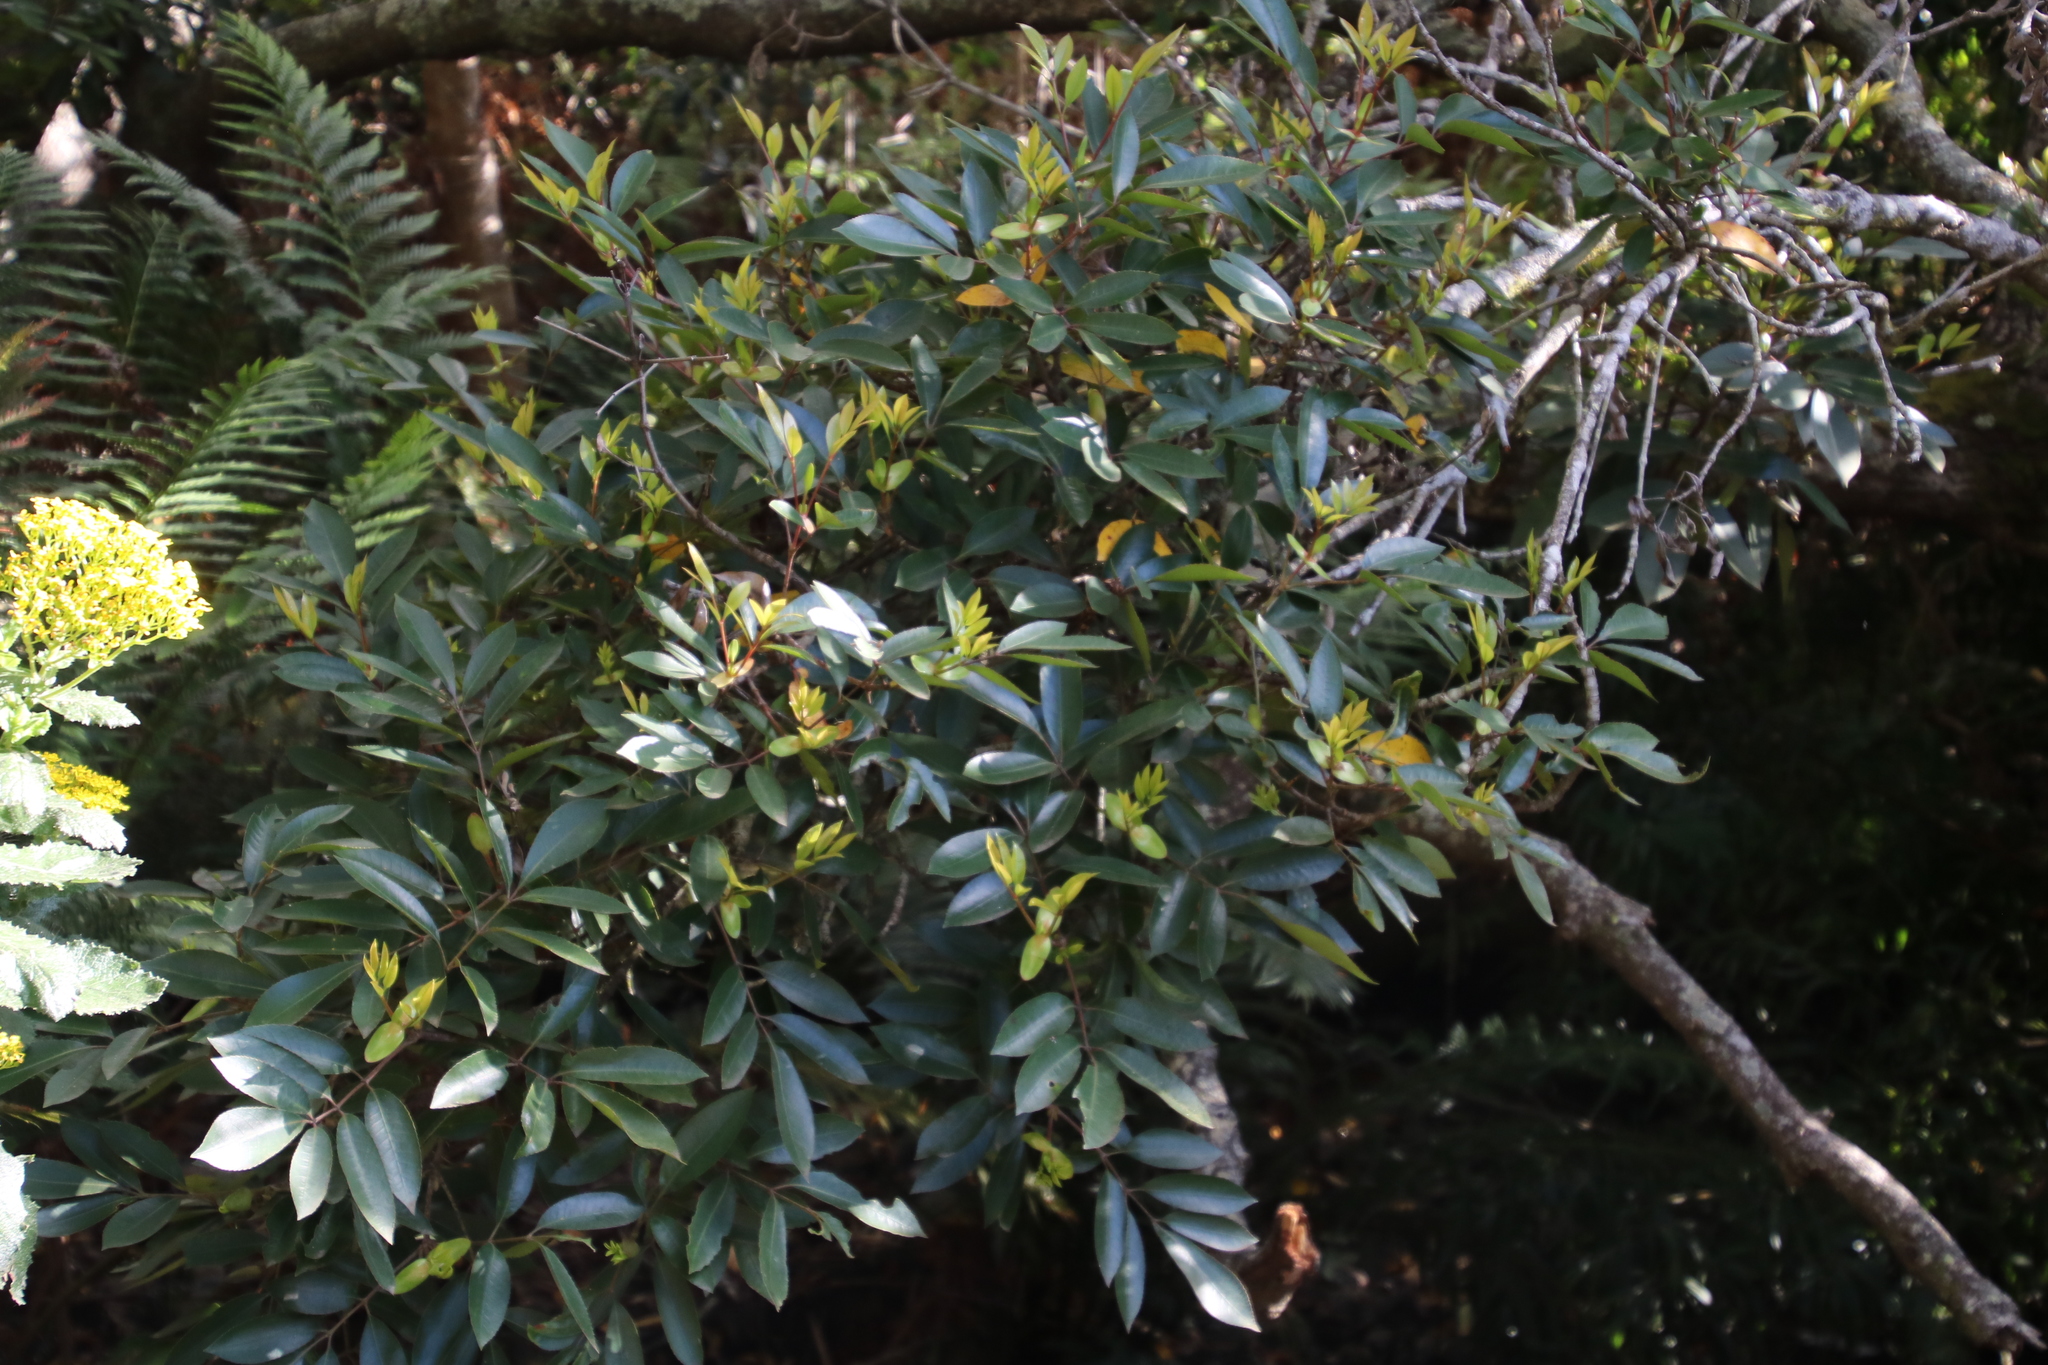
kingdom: Plantae
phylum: Tracheophyta
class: Magnoliopsida
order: Oxalidales
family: Cunoniaceae
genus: Cunonia
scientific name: Cunonia capensis
